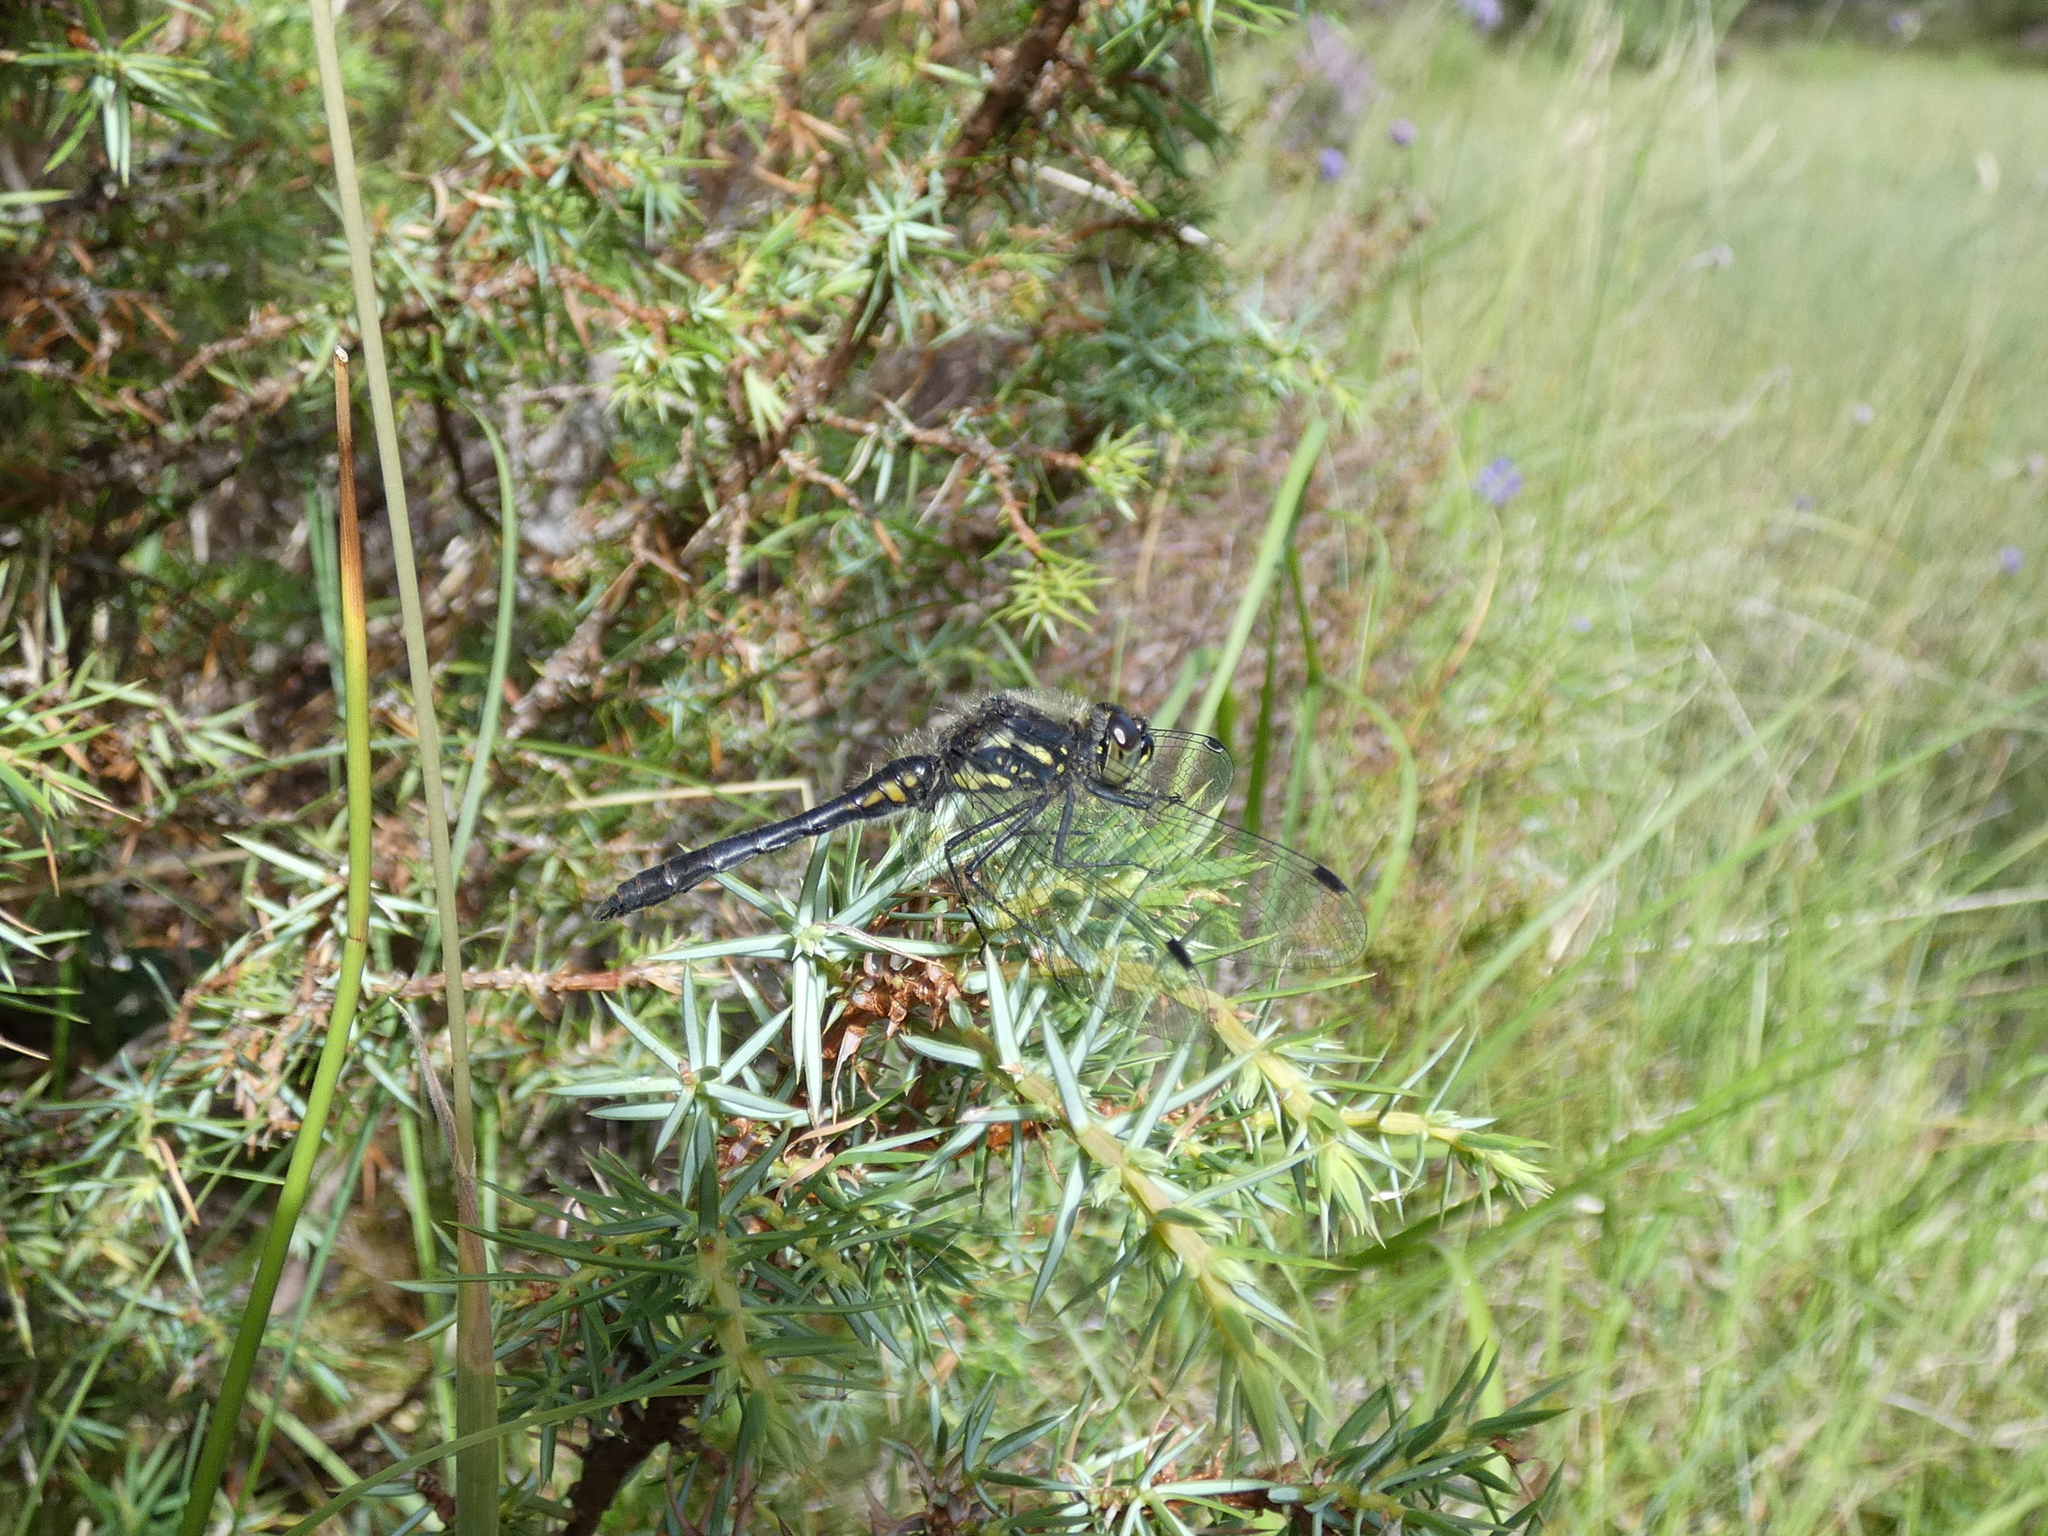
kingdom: Animalia
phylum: Arthropoda
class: Insecta
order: Odonata
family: Libellulidae
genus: Sympetrum
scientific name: Sympetrum danae
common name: Black darter
